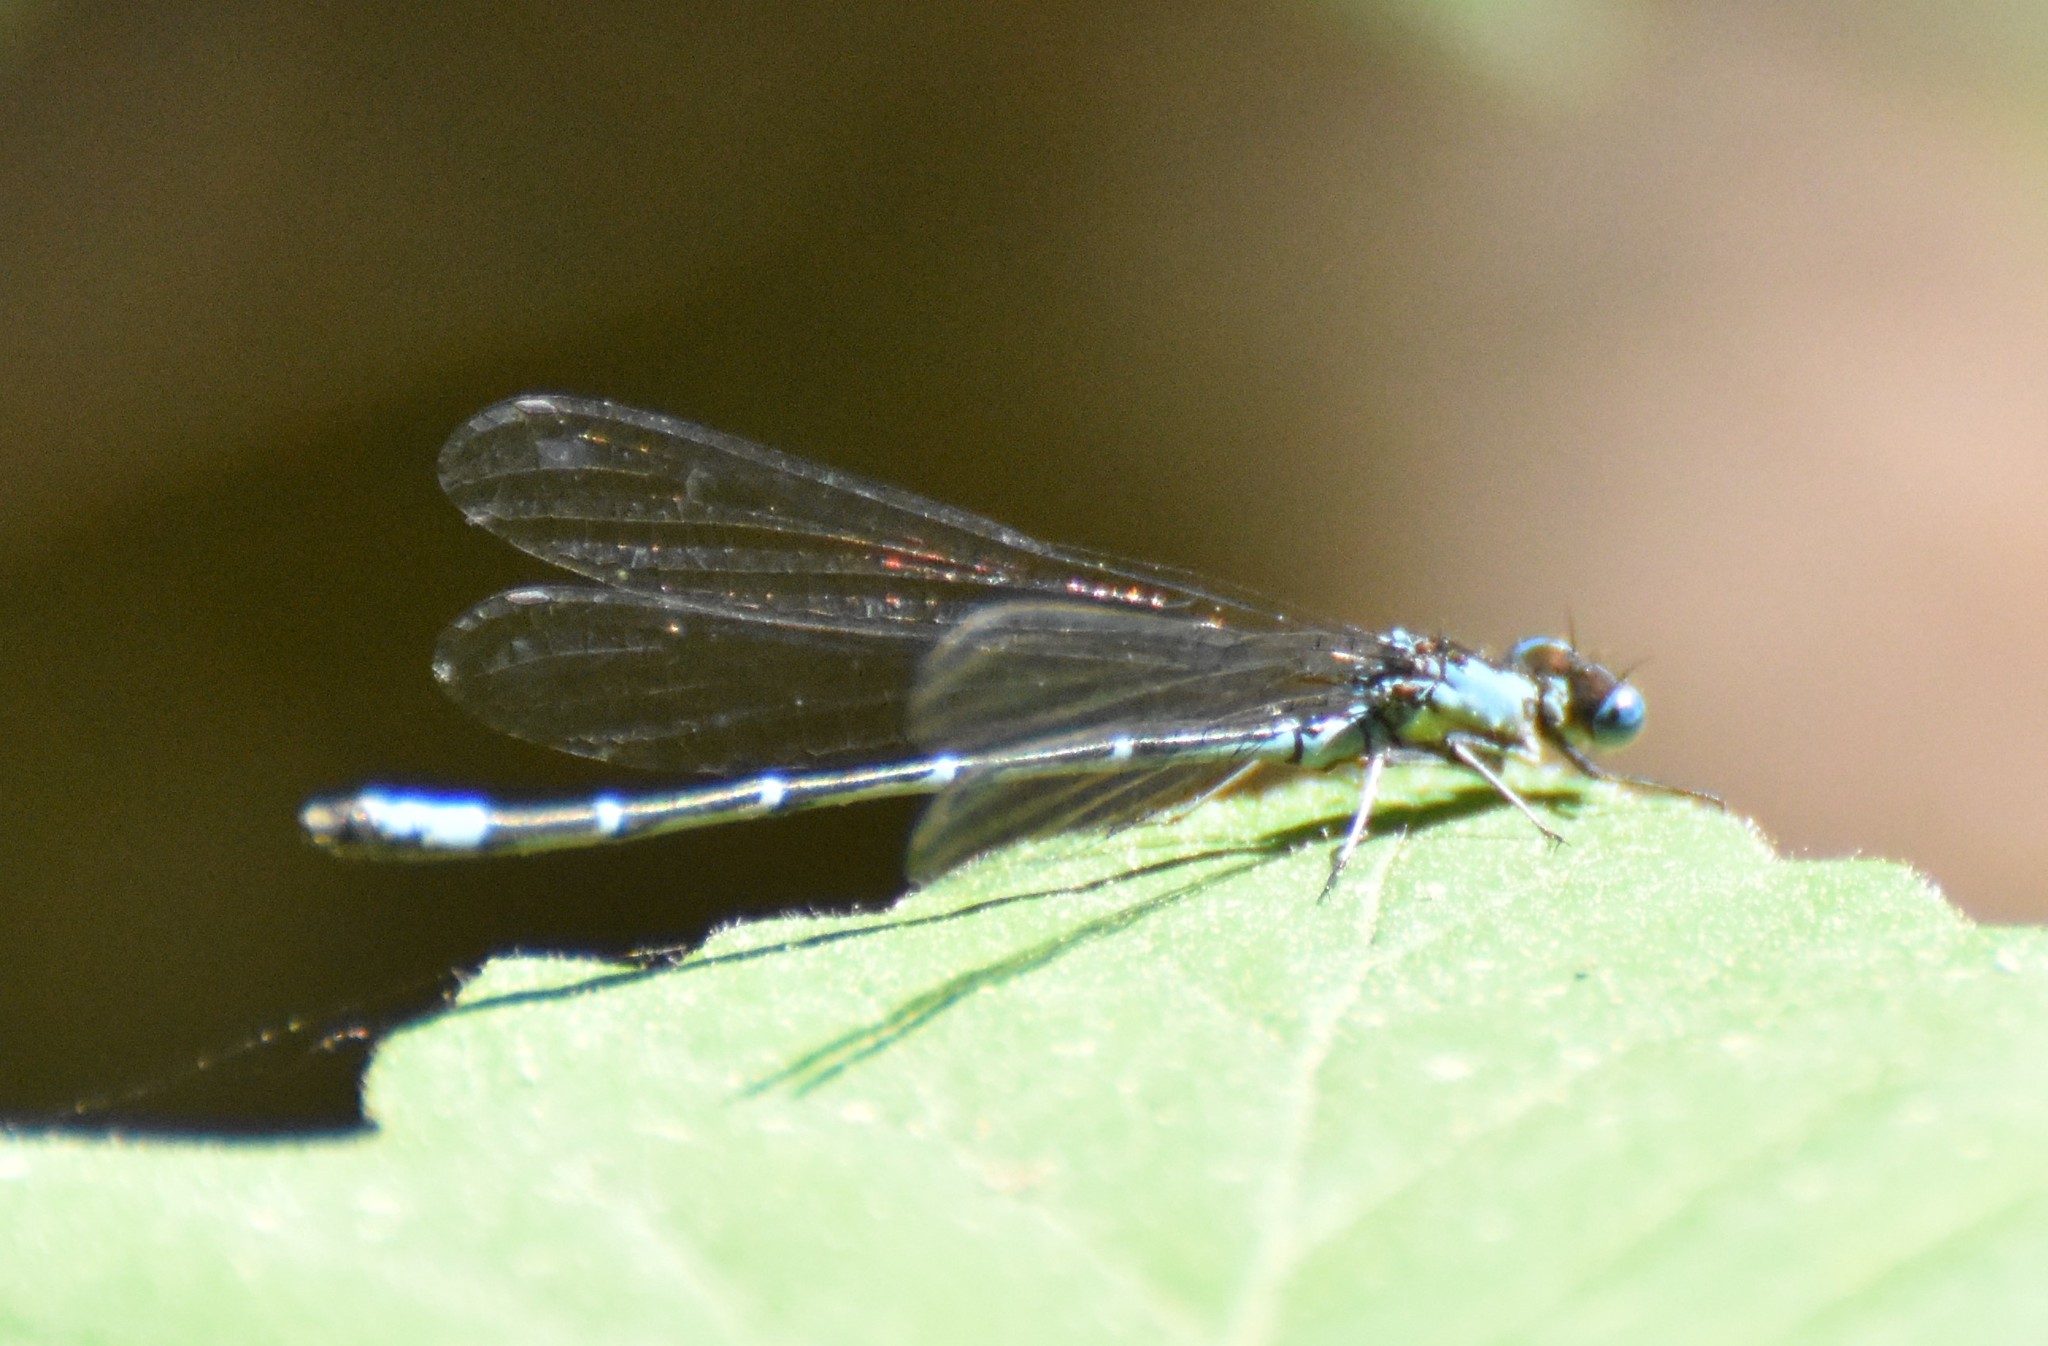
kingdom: Animalia
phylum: Arthropoda
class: Insecta
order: Odonata
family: Coenagrionidae
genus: Chromagrion
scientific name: Chromagrion conditum
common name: Aurora damsel
